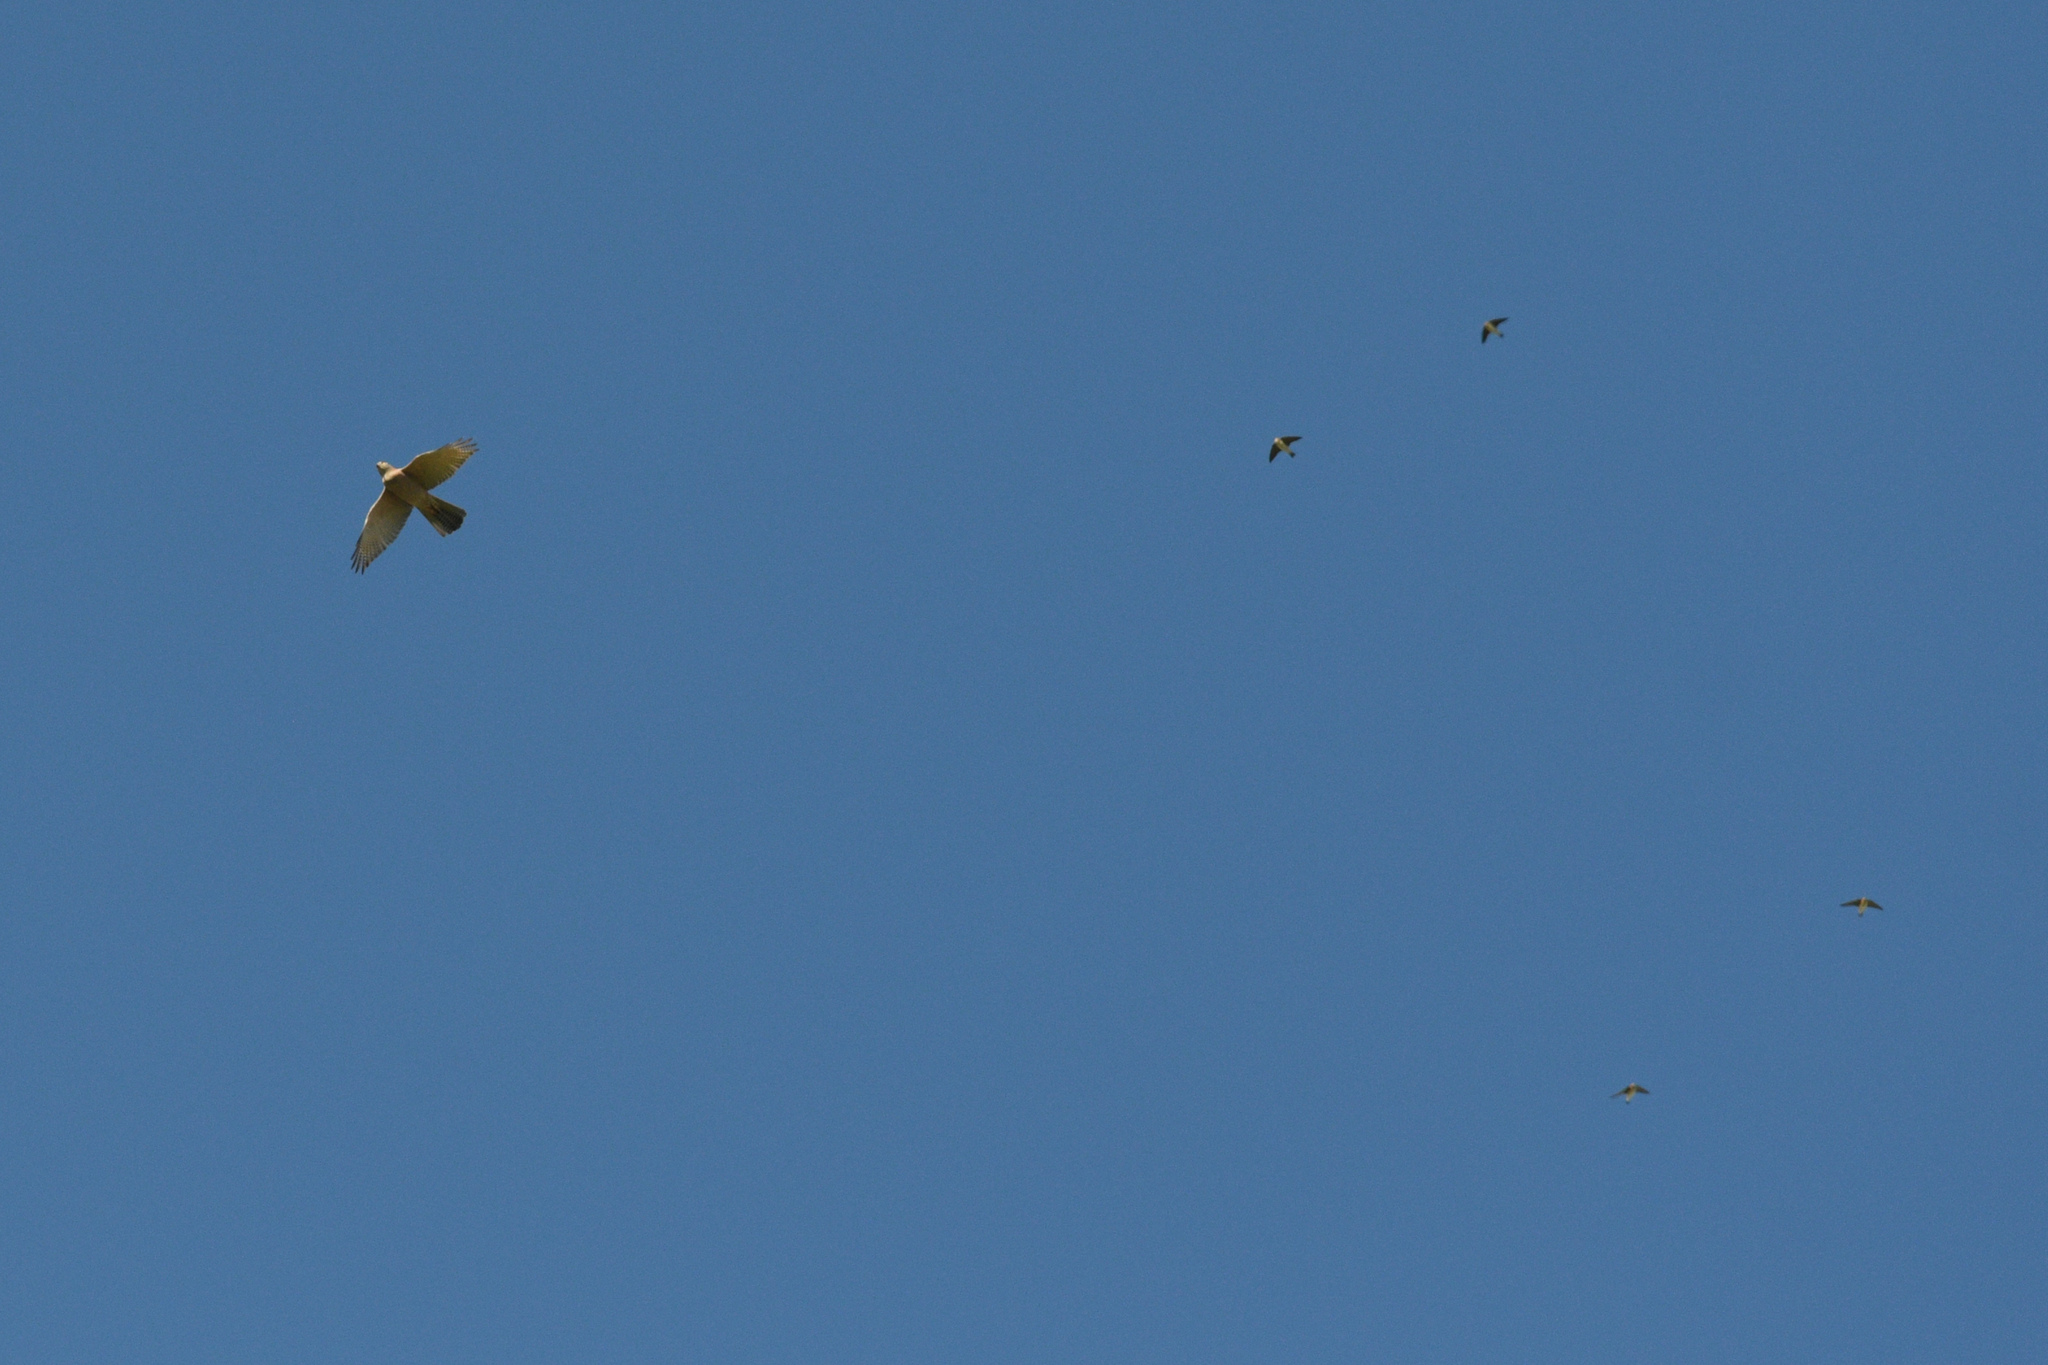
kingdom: Animalia
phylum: Chordata
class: Aves
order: Accipitriformes
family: Accipitridae
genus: Accipiter
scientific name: Accipiter fasciatus
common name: Brown goshawk
